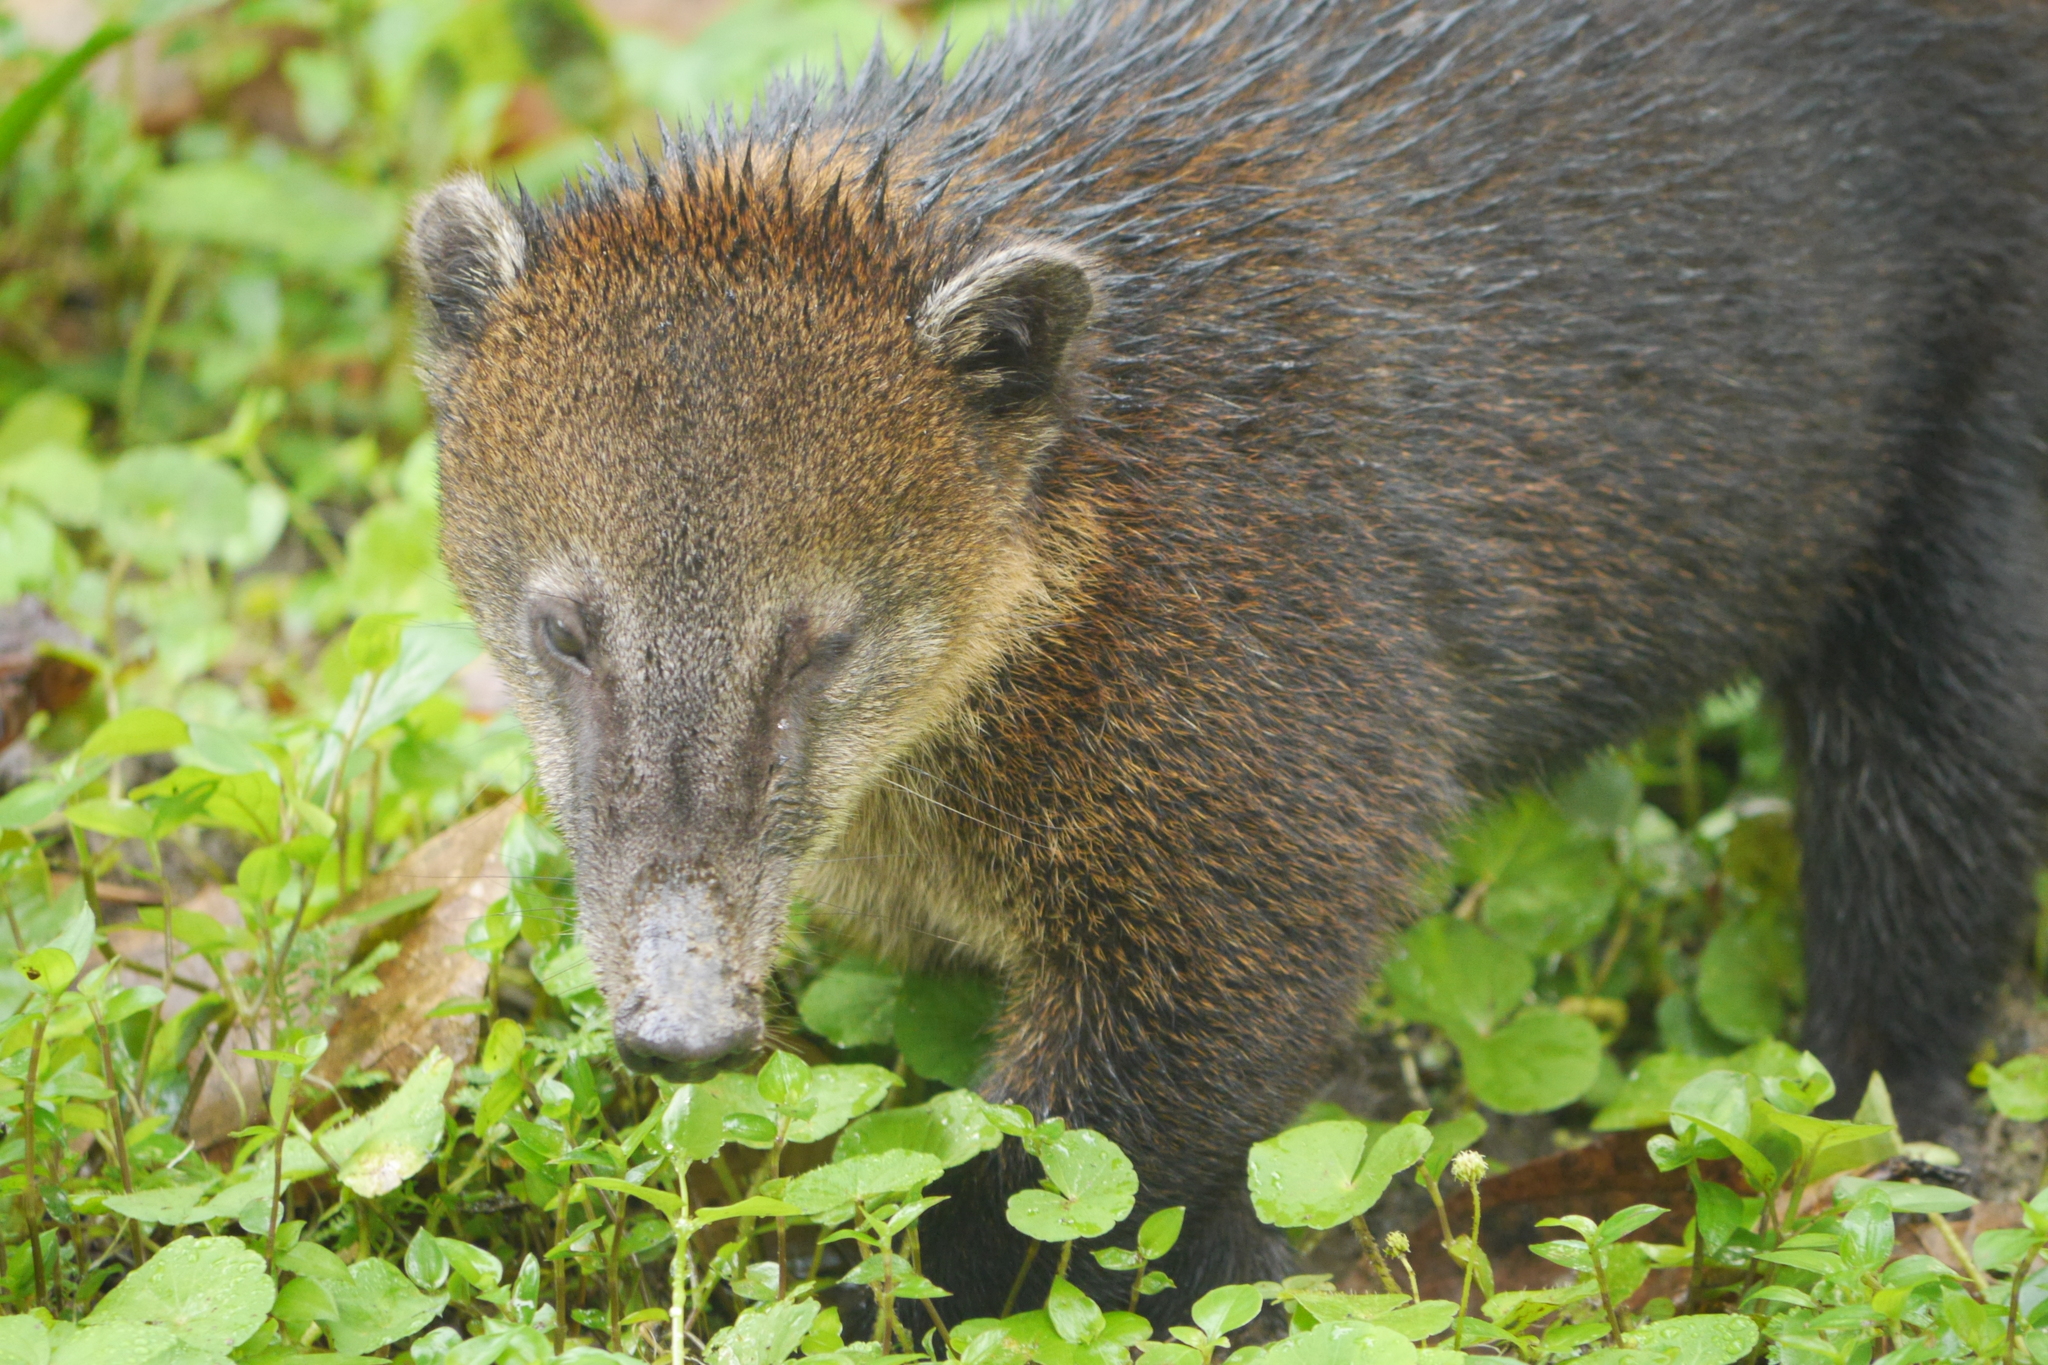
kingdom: Animalia
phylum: Chordata
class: Mammalia
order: Carnivora
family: Procyonidae
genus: Nasua
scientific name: Nasua nasua
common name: South american coati
